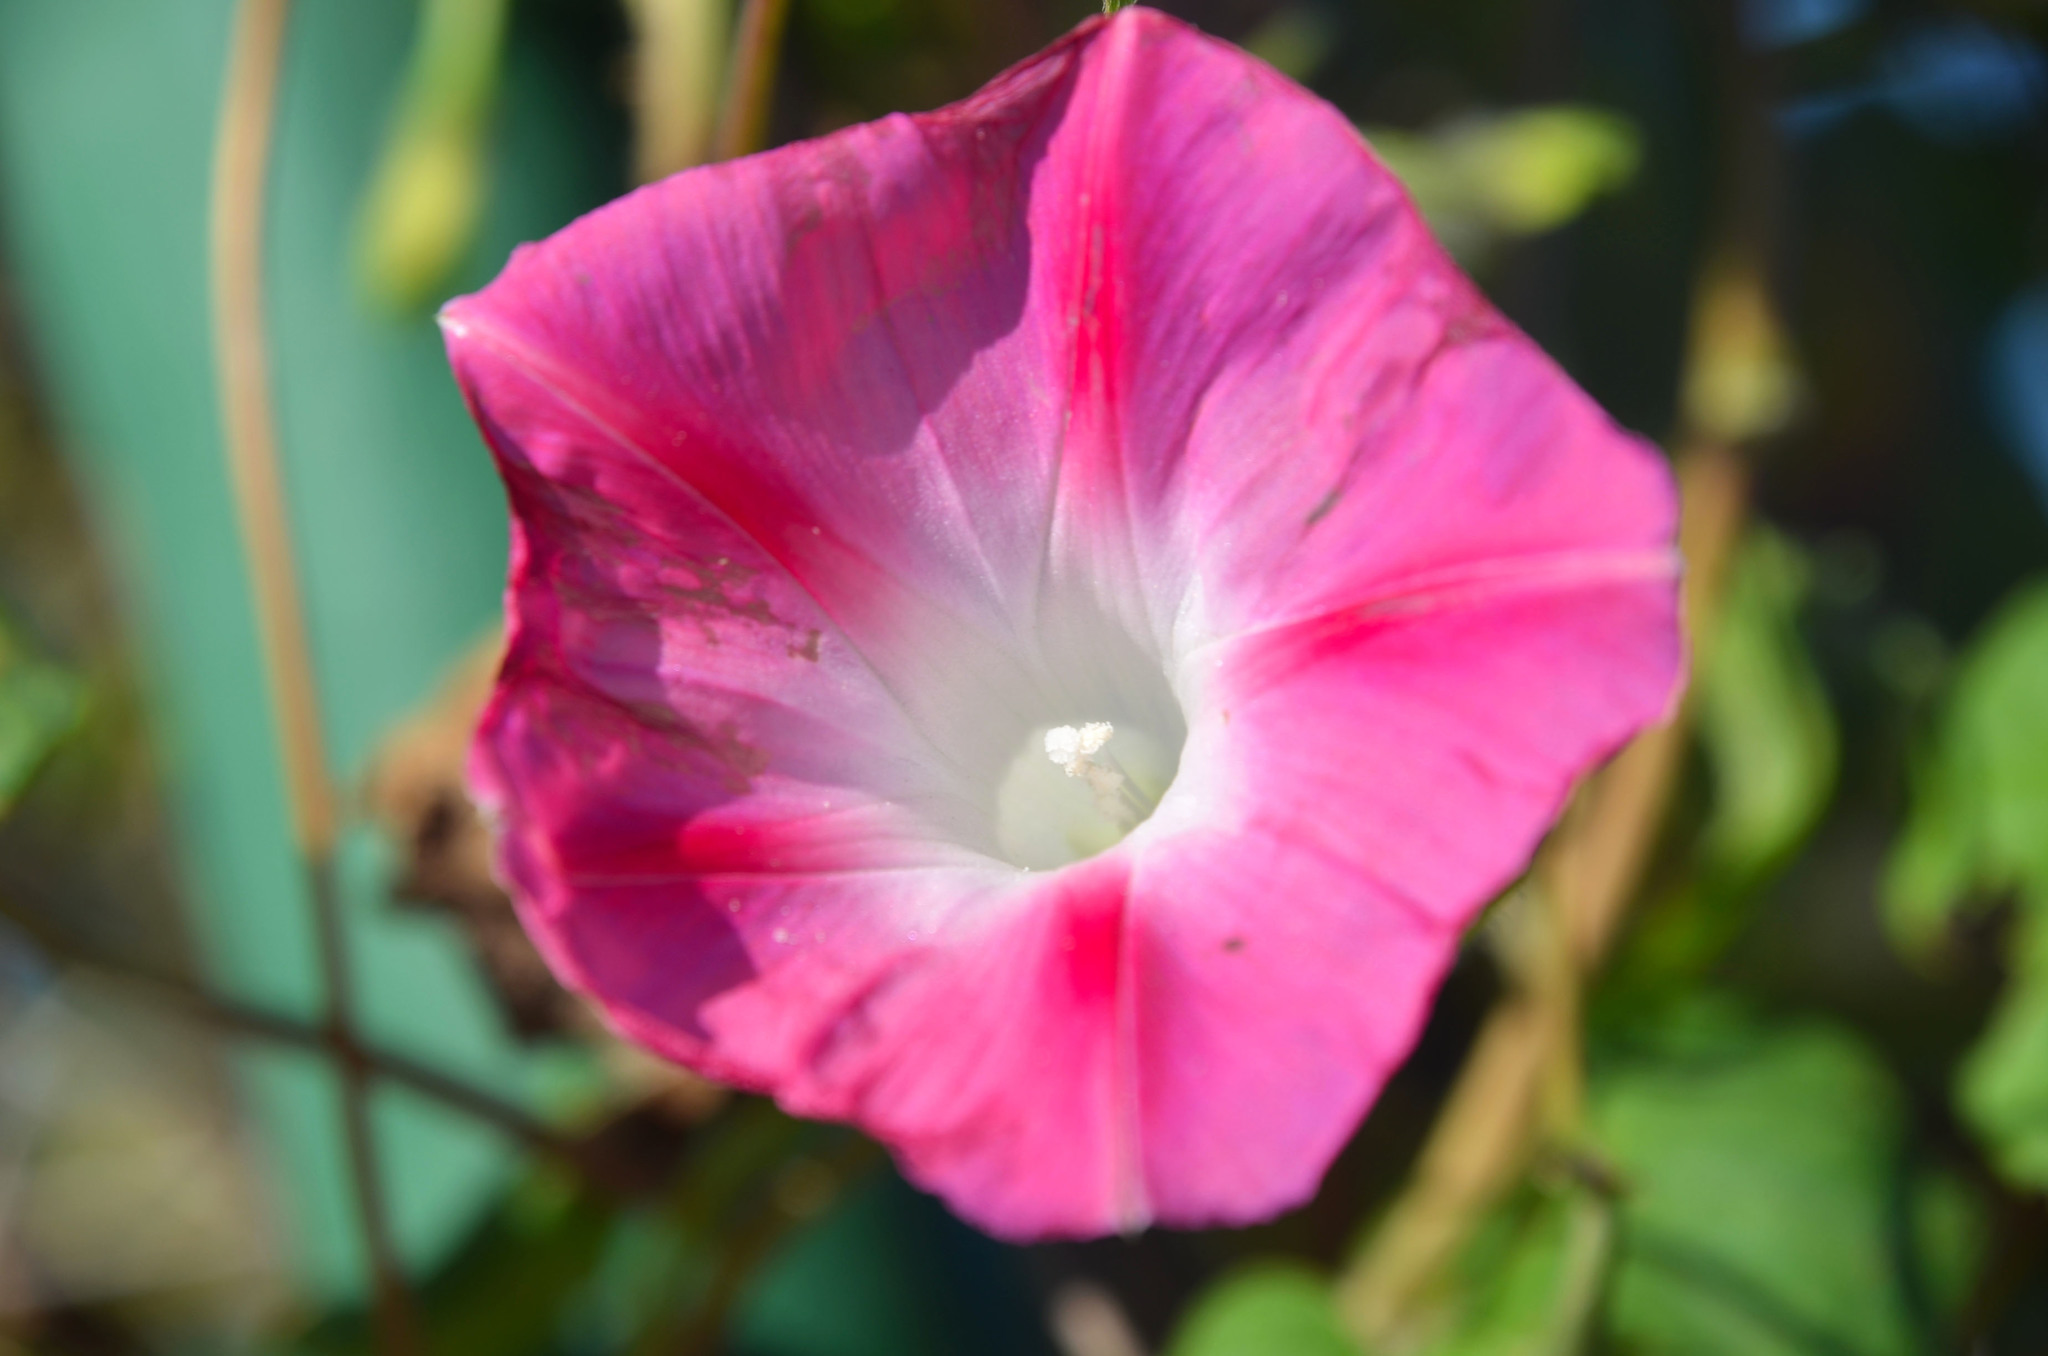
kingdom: Plantae
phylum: Tracheophyta
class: Magnoliopsida
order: Solanales
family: Convolvulaceae
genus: Ipomoea
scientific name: Ipomoea purpurea
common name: Common morning-glory
